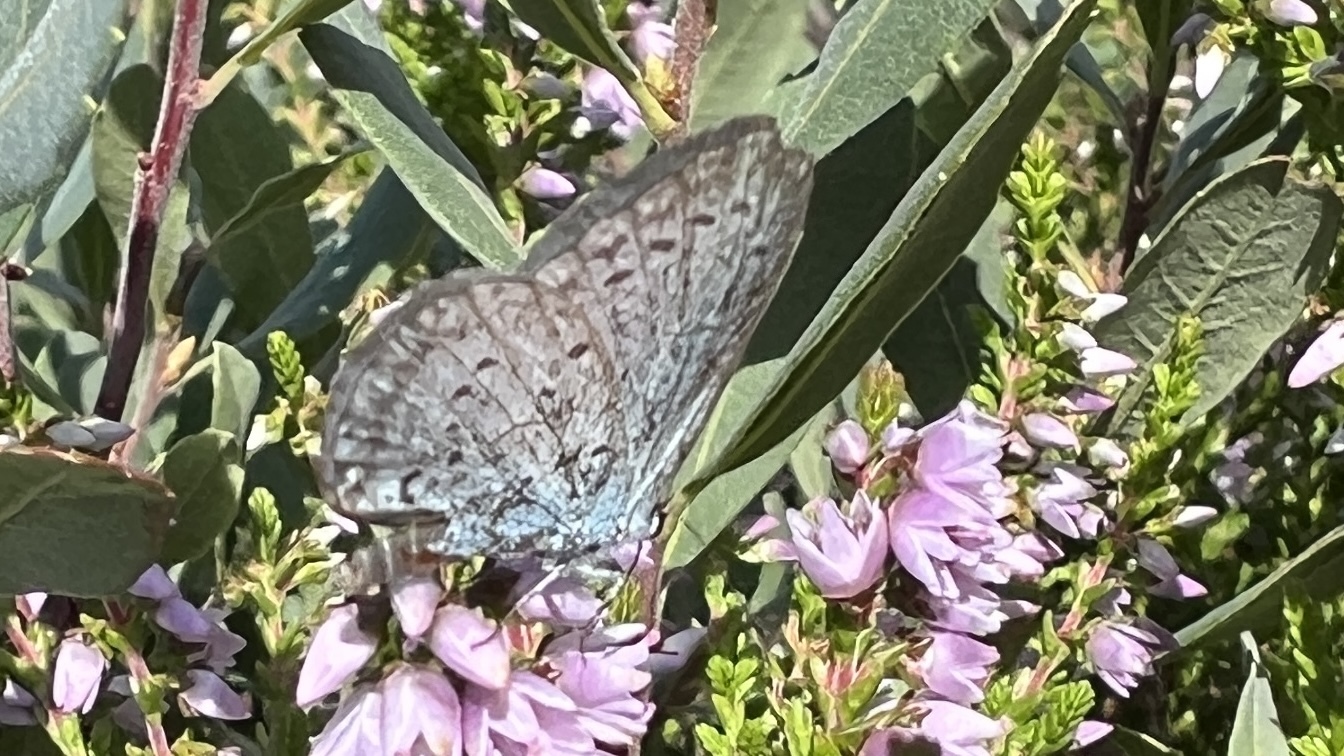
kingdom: Animalia
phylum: Arthropoda
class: Insecta
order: Lepidoptera
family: Lycaenidae
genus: Celastrina
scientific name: Celastrina argiolus
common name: Holly blue
